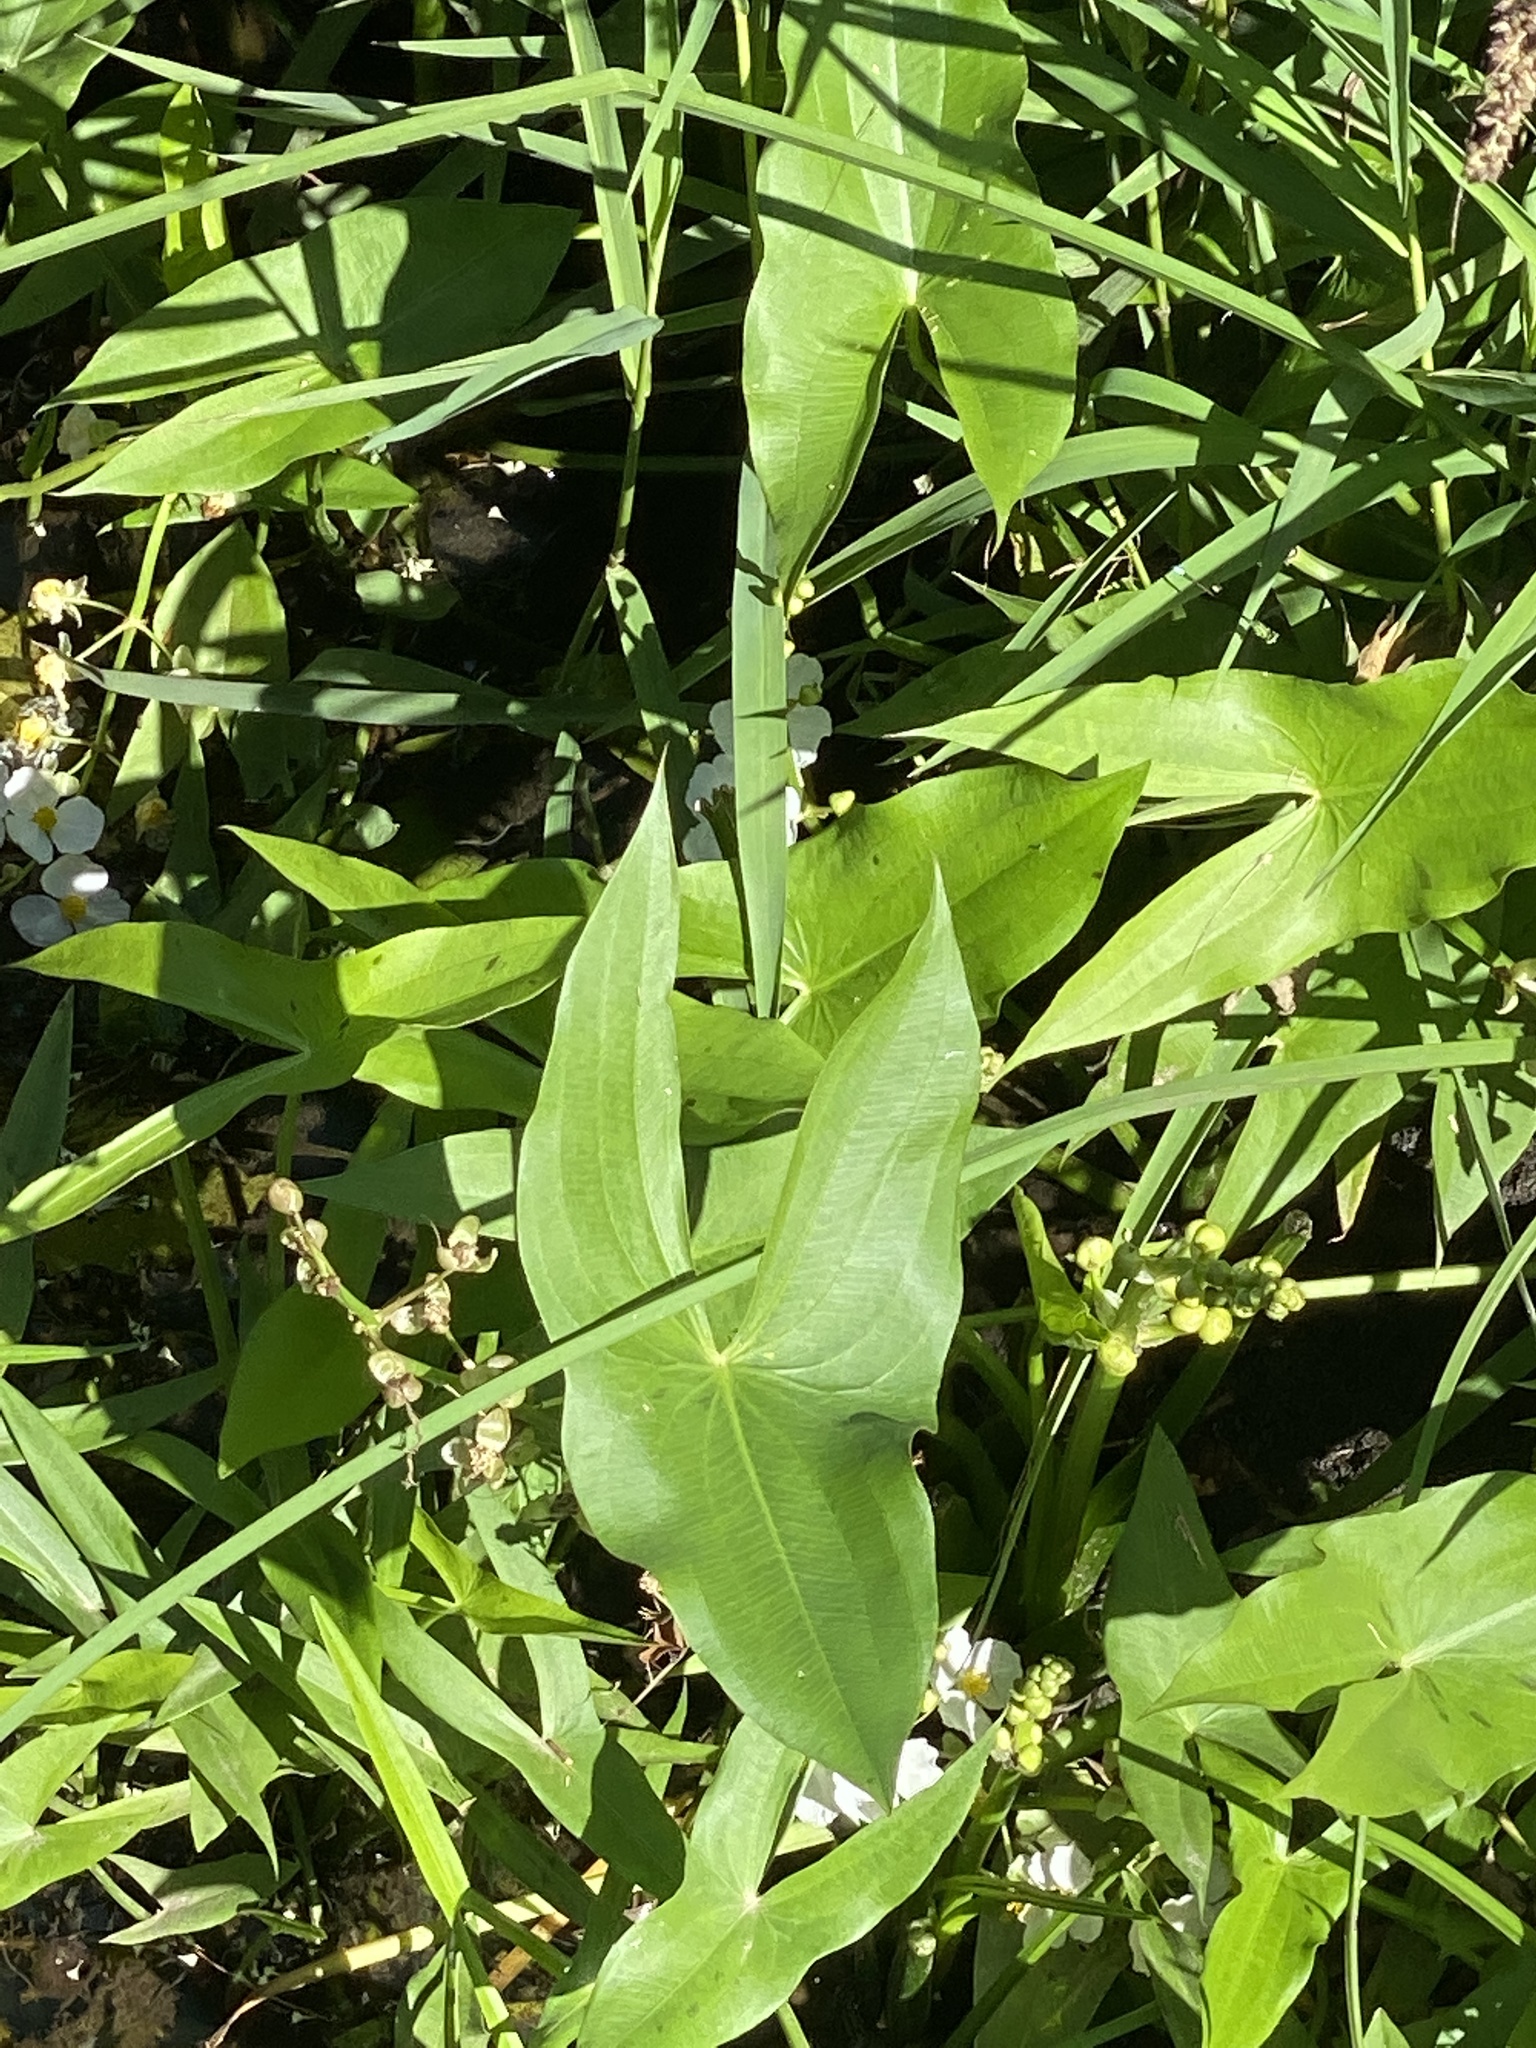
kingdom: Plantae
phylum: Tracheophyta
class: Liliopsida
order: Alismatales
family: Alismataceae
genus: Sagittaria
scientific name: Sagittaria latifolia
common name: Duck-potato
